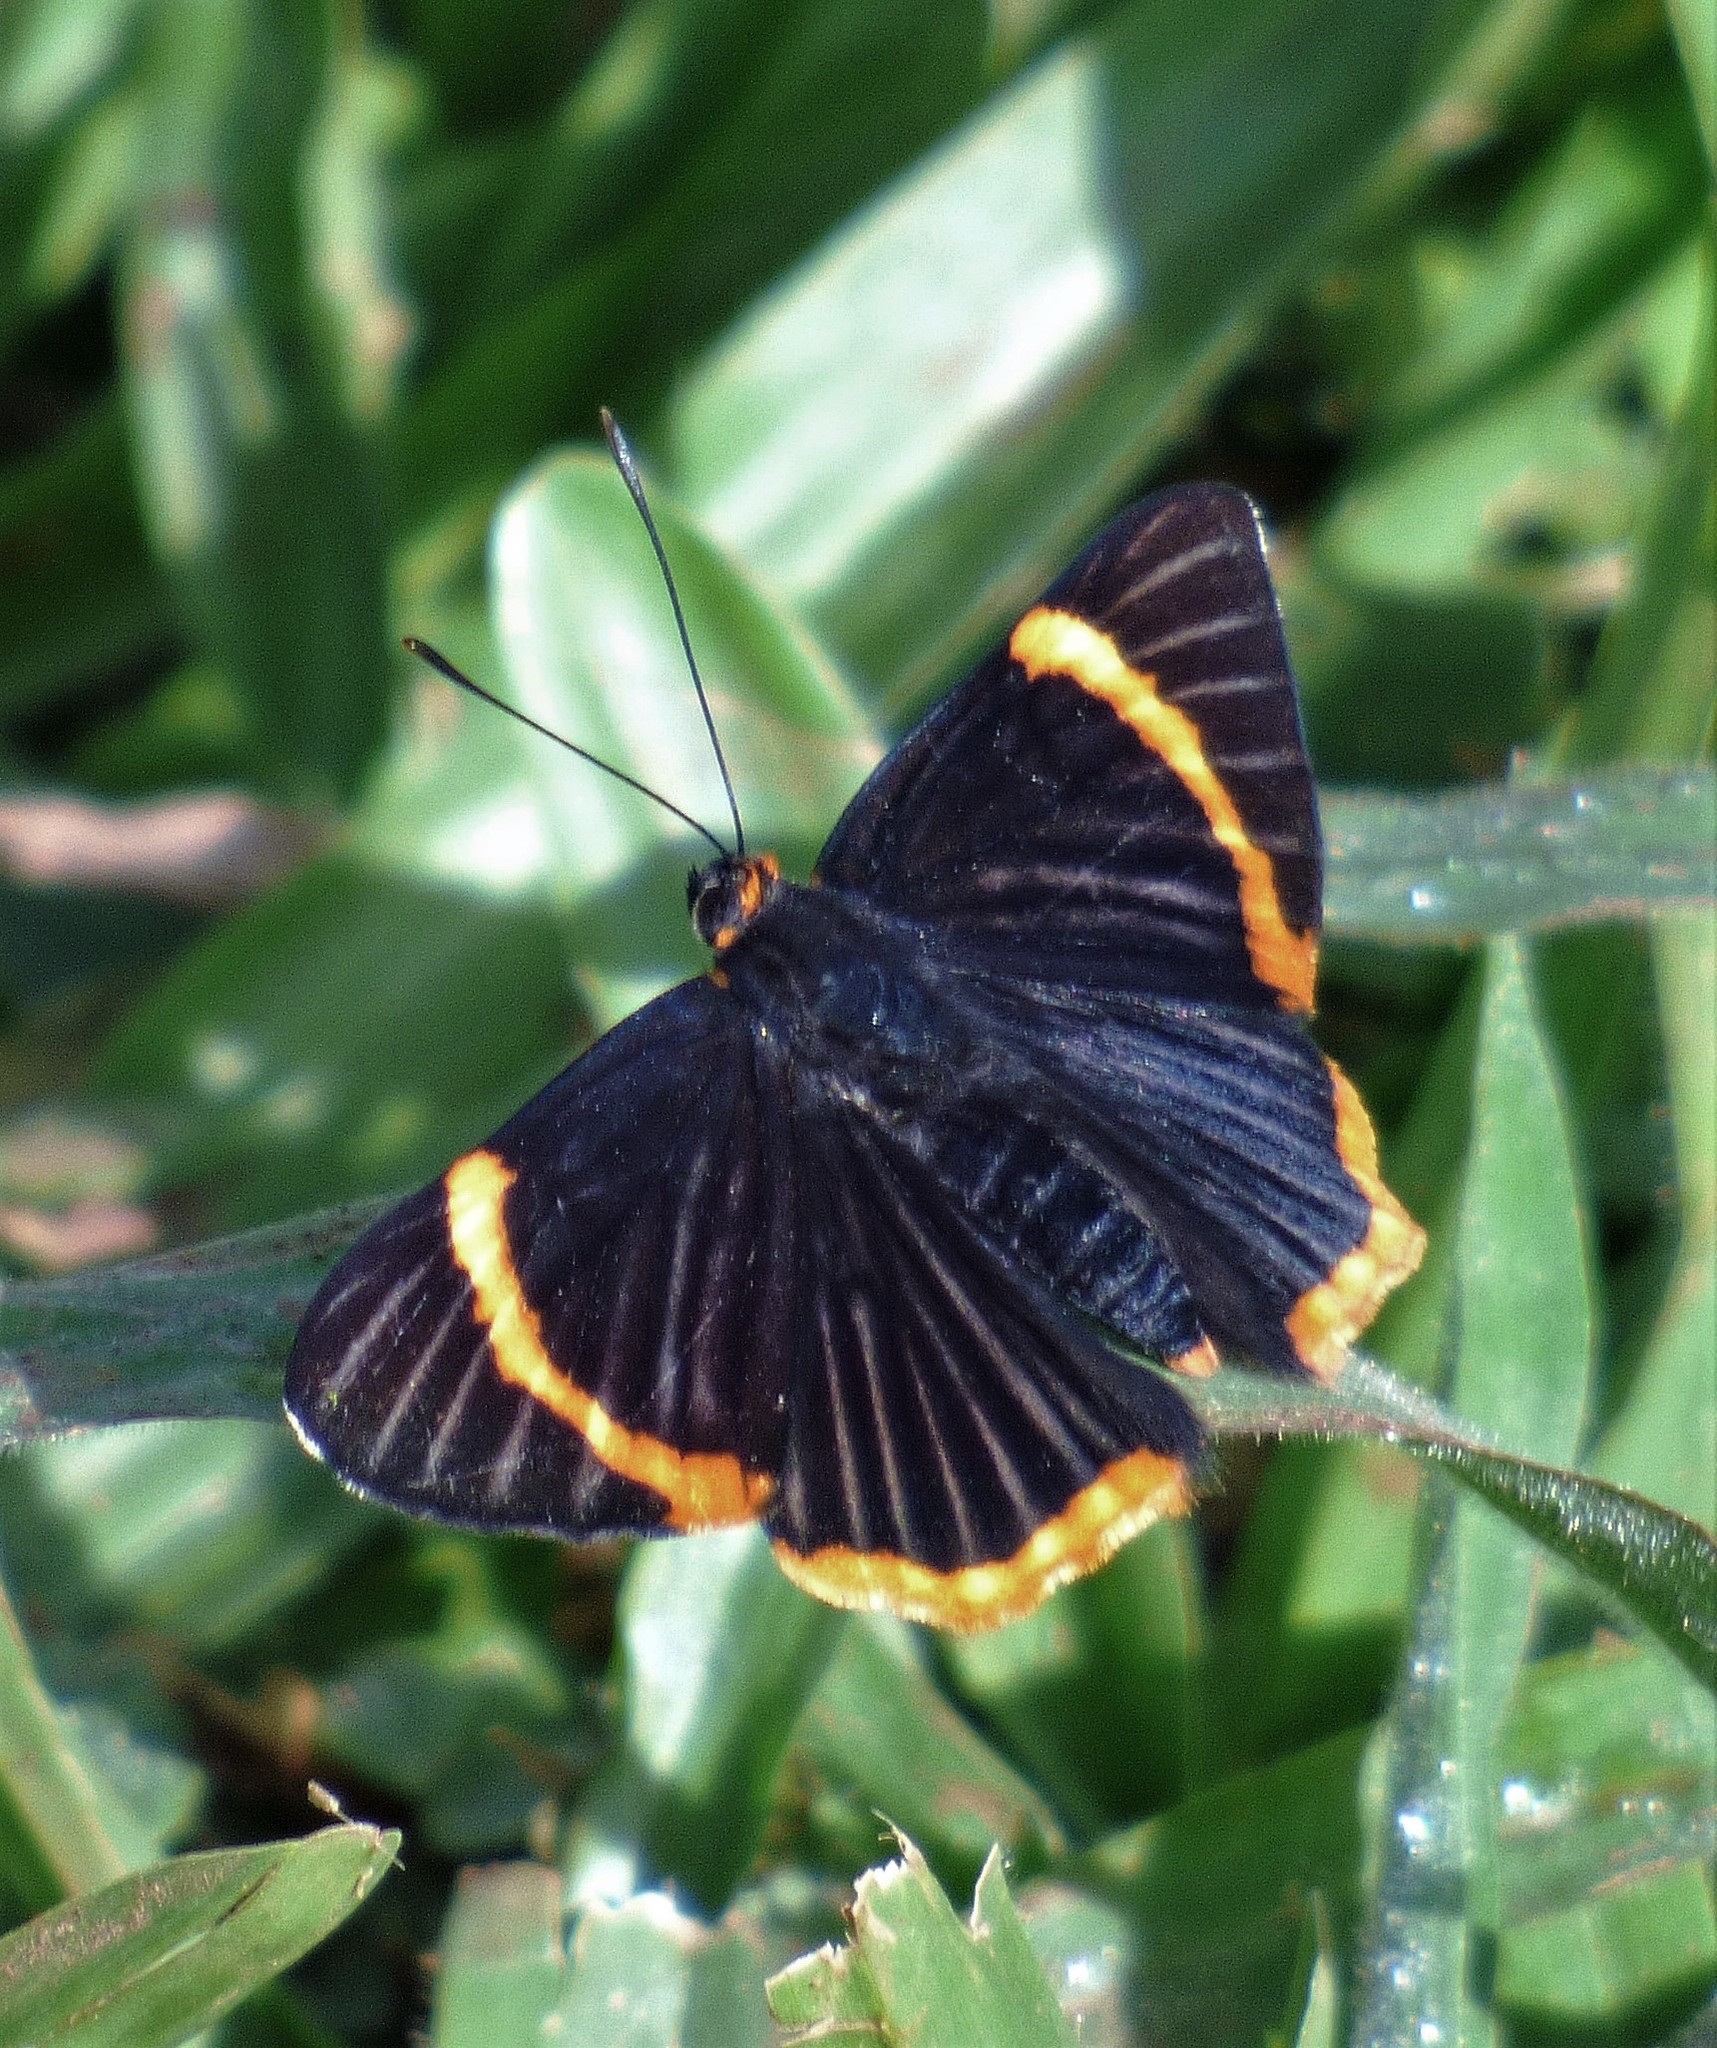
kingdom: Animalia
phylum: Arthropoda
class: Insecta
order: Lepidoptera
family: Riodinidae
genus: Riodina
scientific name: Riodina lycisca
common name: Lycisca metalmark
